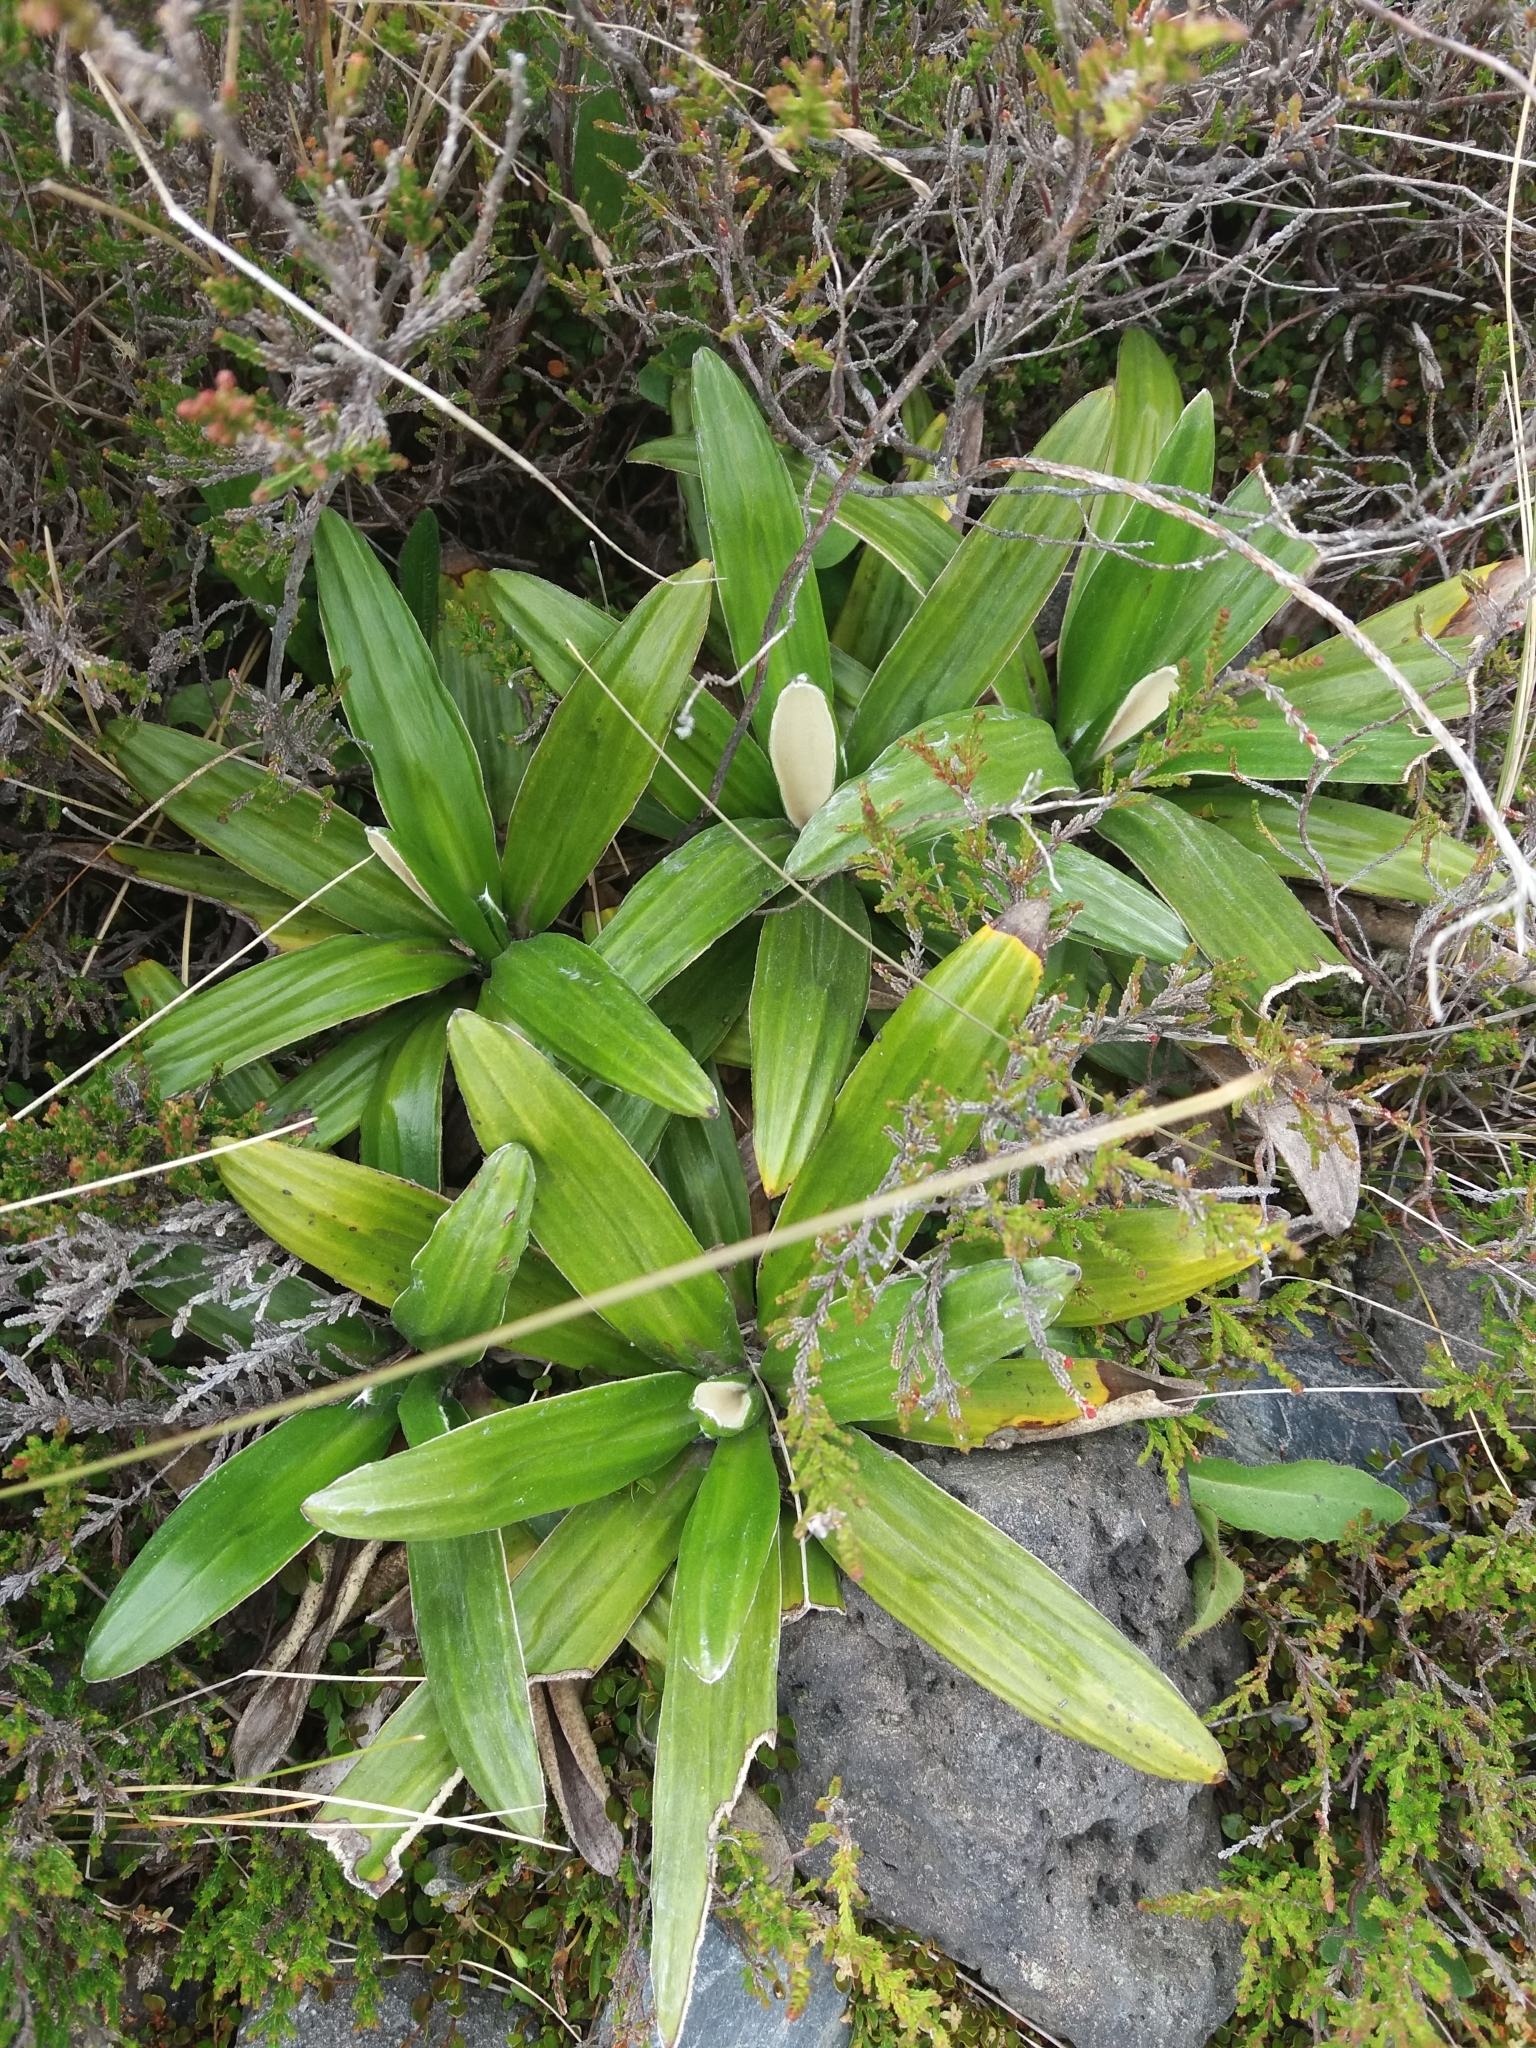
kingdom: Plantae
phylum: Tracheophyta
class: Magnoliopsida
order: Asterales
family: Asteraceae
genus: Celmisia
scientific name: Celmisia spectabilis
